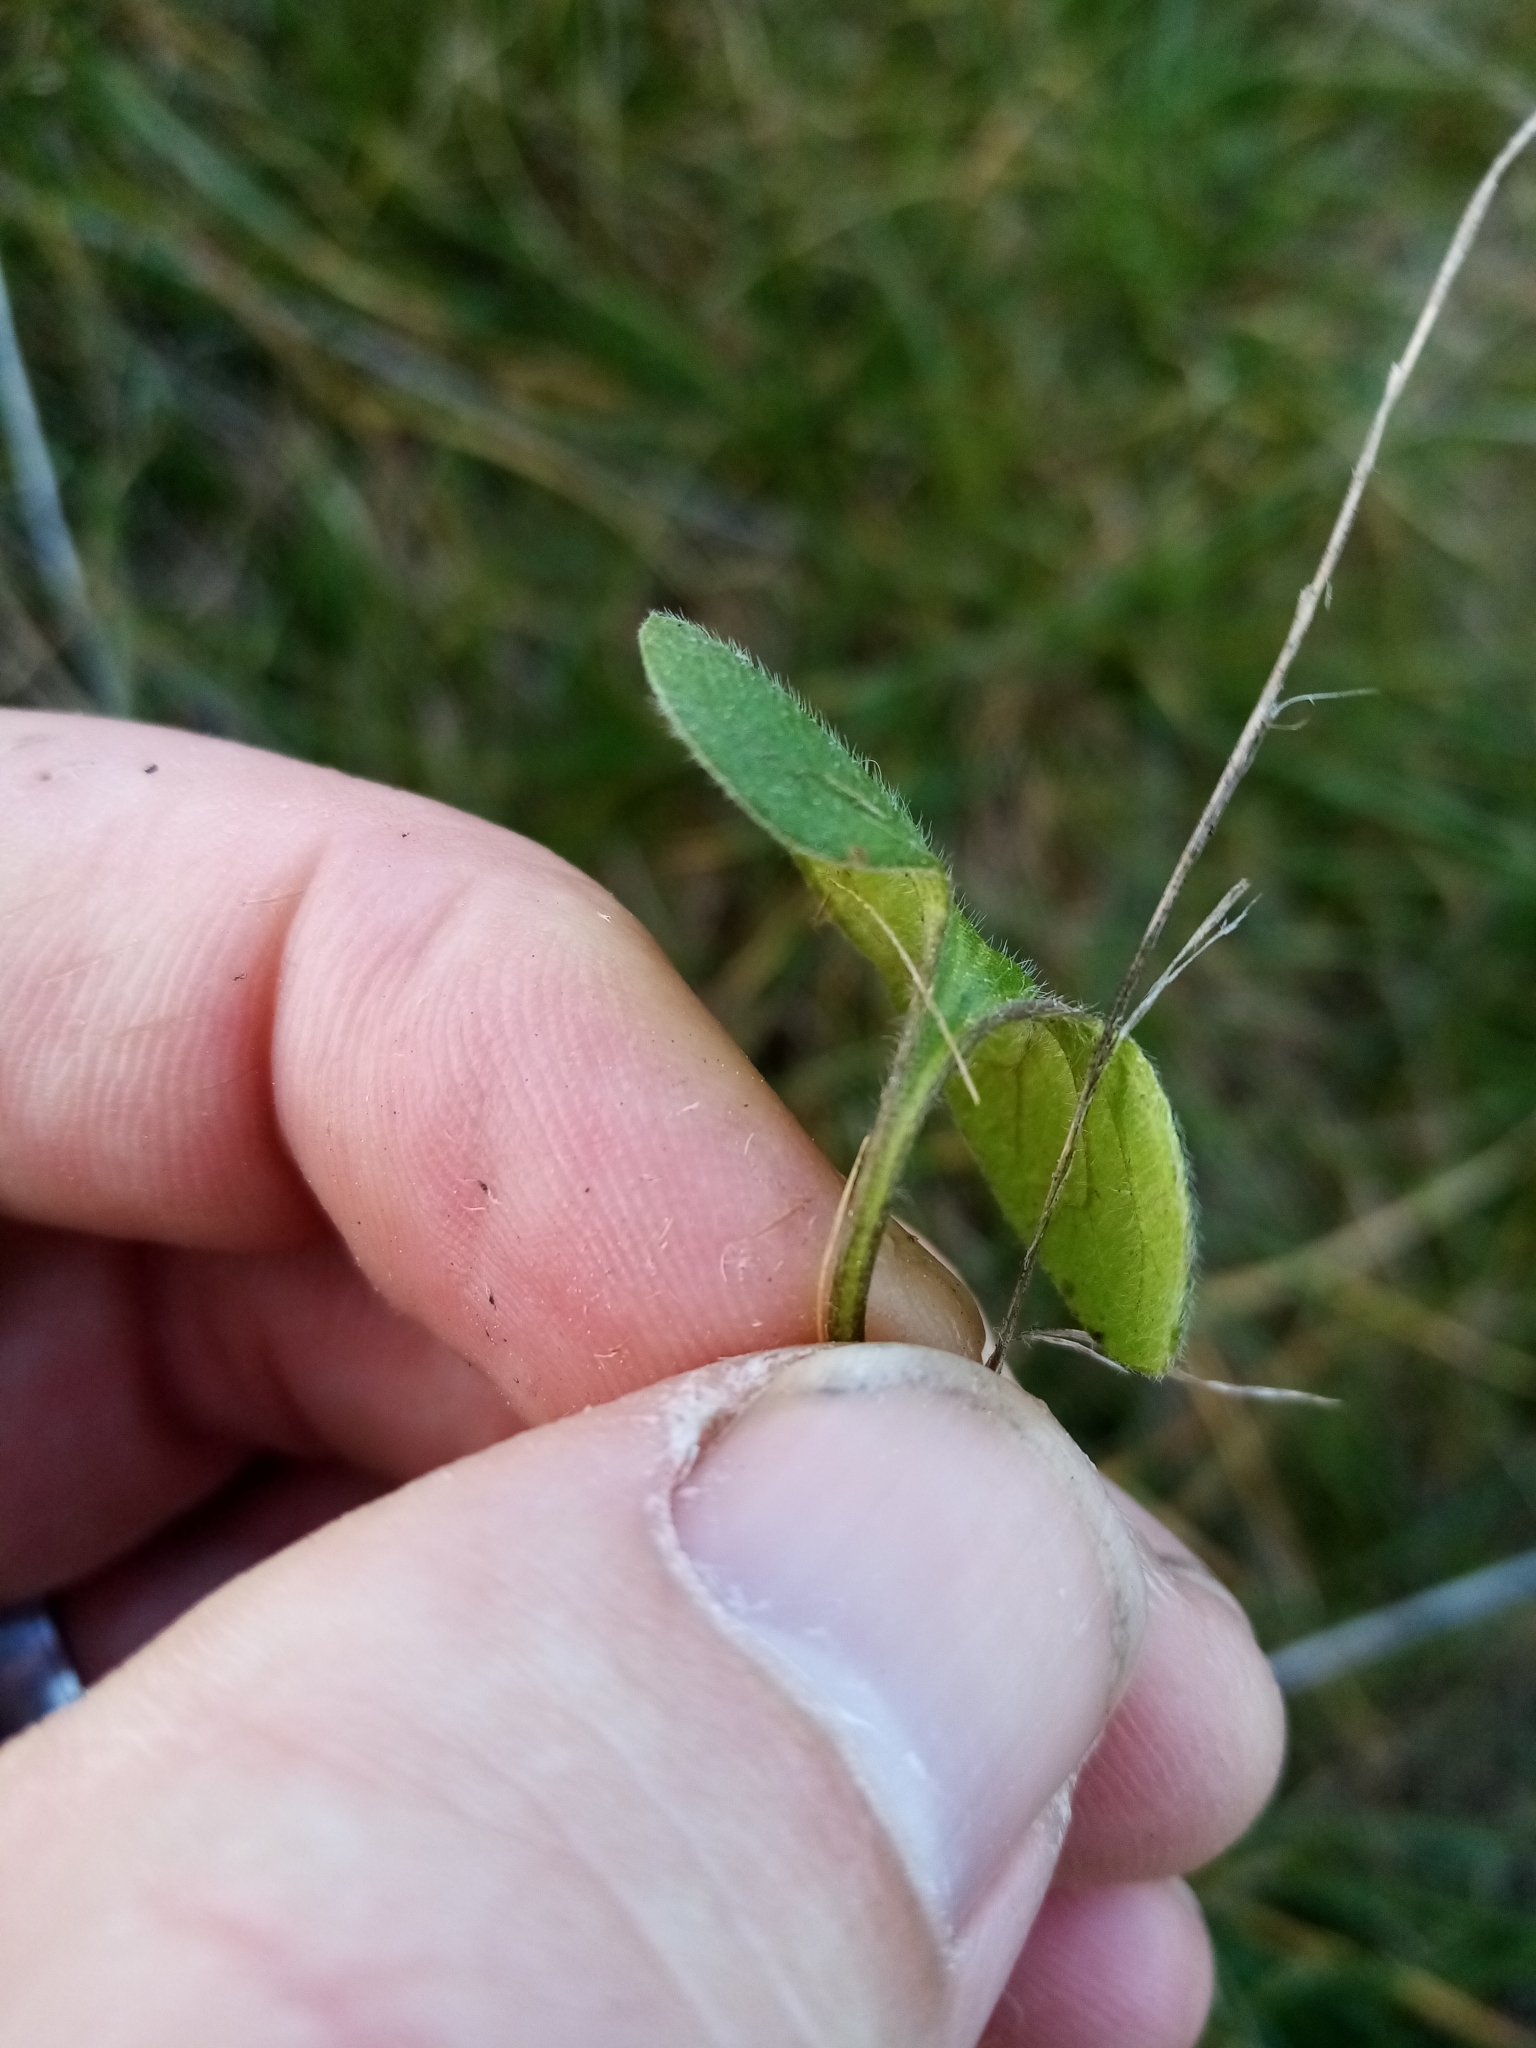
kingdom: Plantae
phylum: Tracheophyta
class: Magnoliopsida
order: Solanales
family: Convolvulaceae
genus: Dichondra
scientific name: Dichondra repens
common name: Kidneyweed
